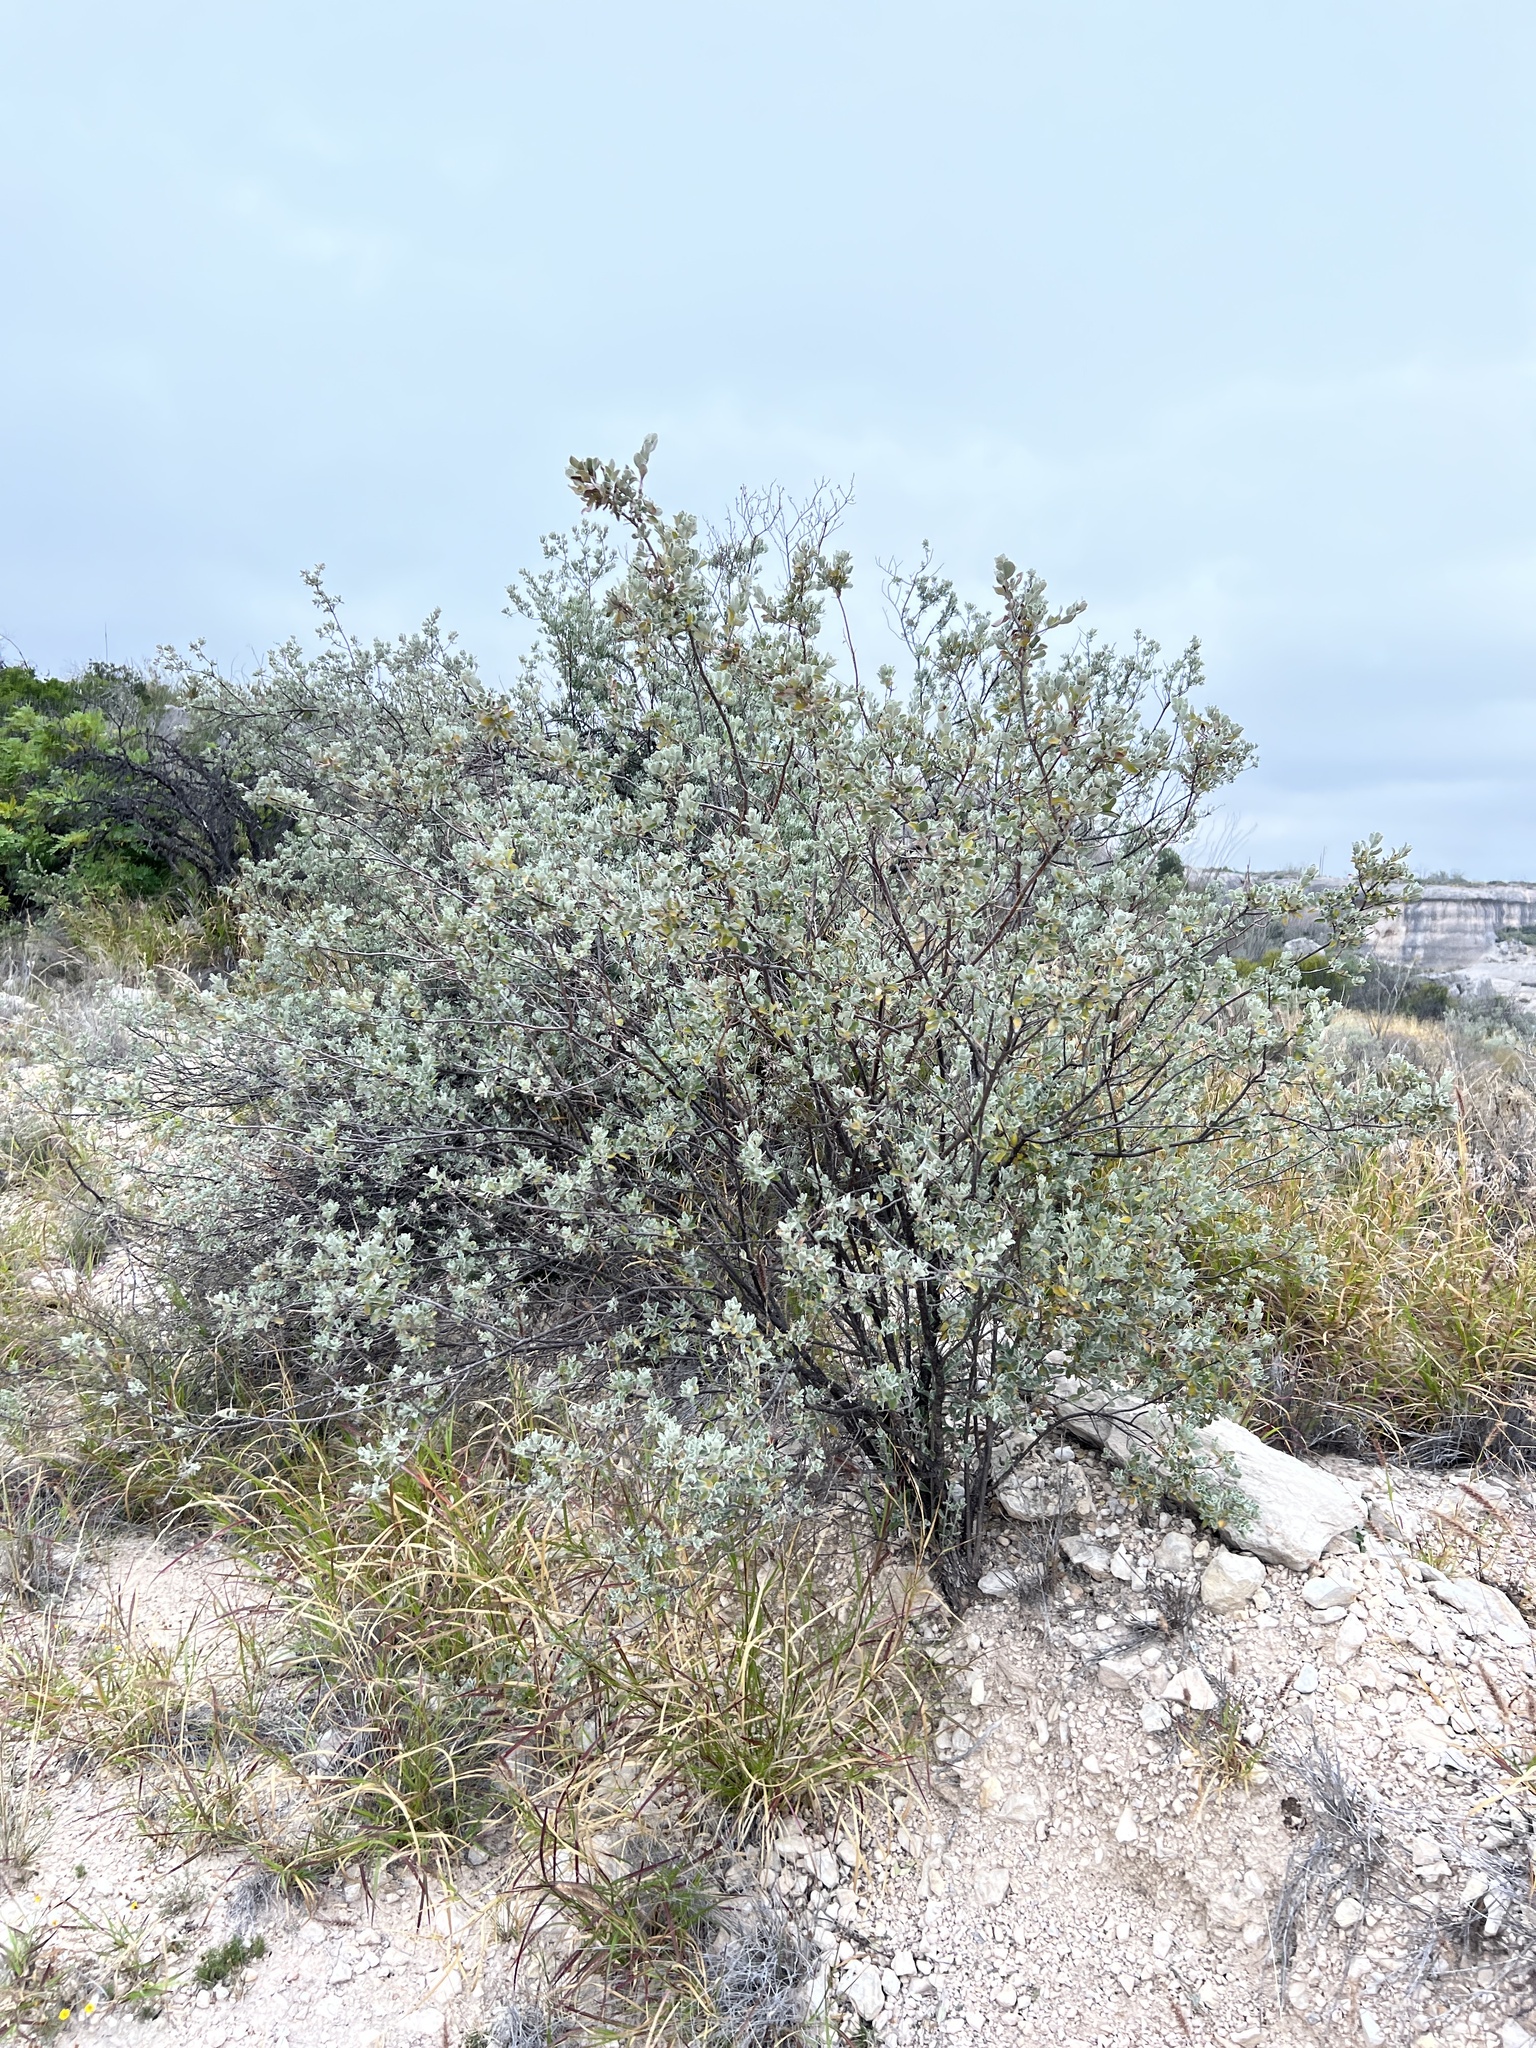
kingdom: Plantae
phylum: Tracheophyta
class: Magnoliopsida
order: Lamiales
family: Scrophulariaceae
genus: Leucophyllum
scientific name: Leucophyllum frutescens
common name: Texas silverleaf
